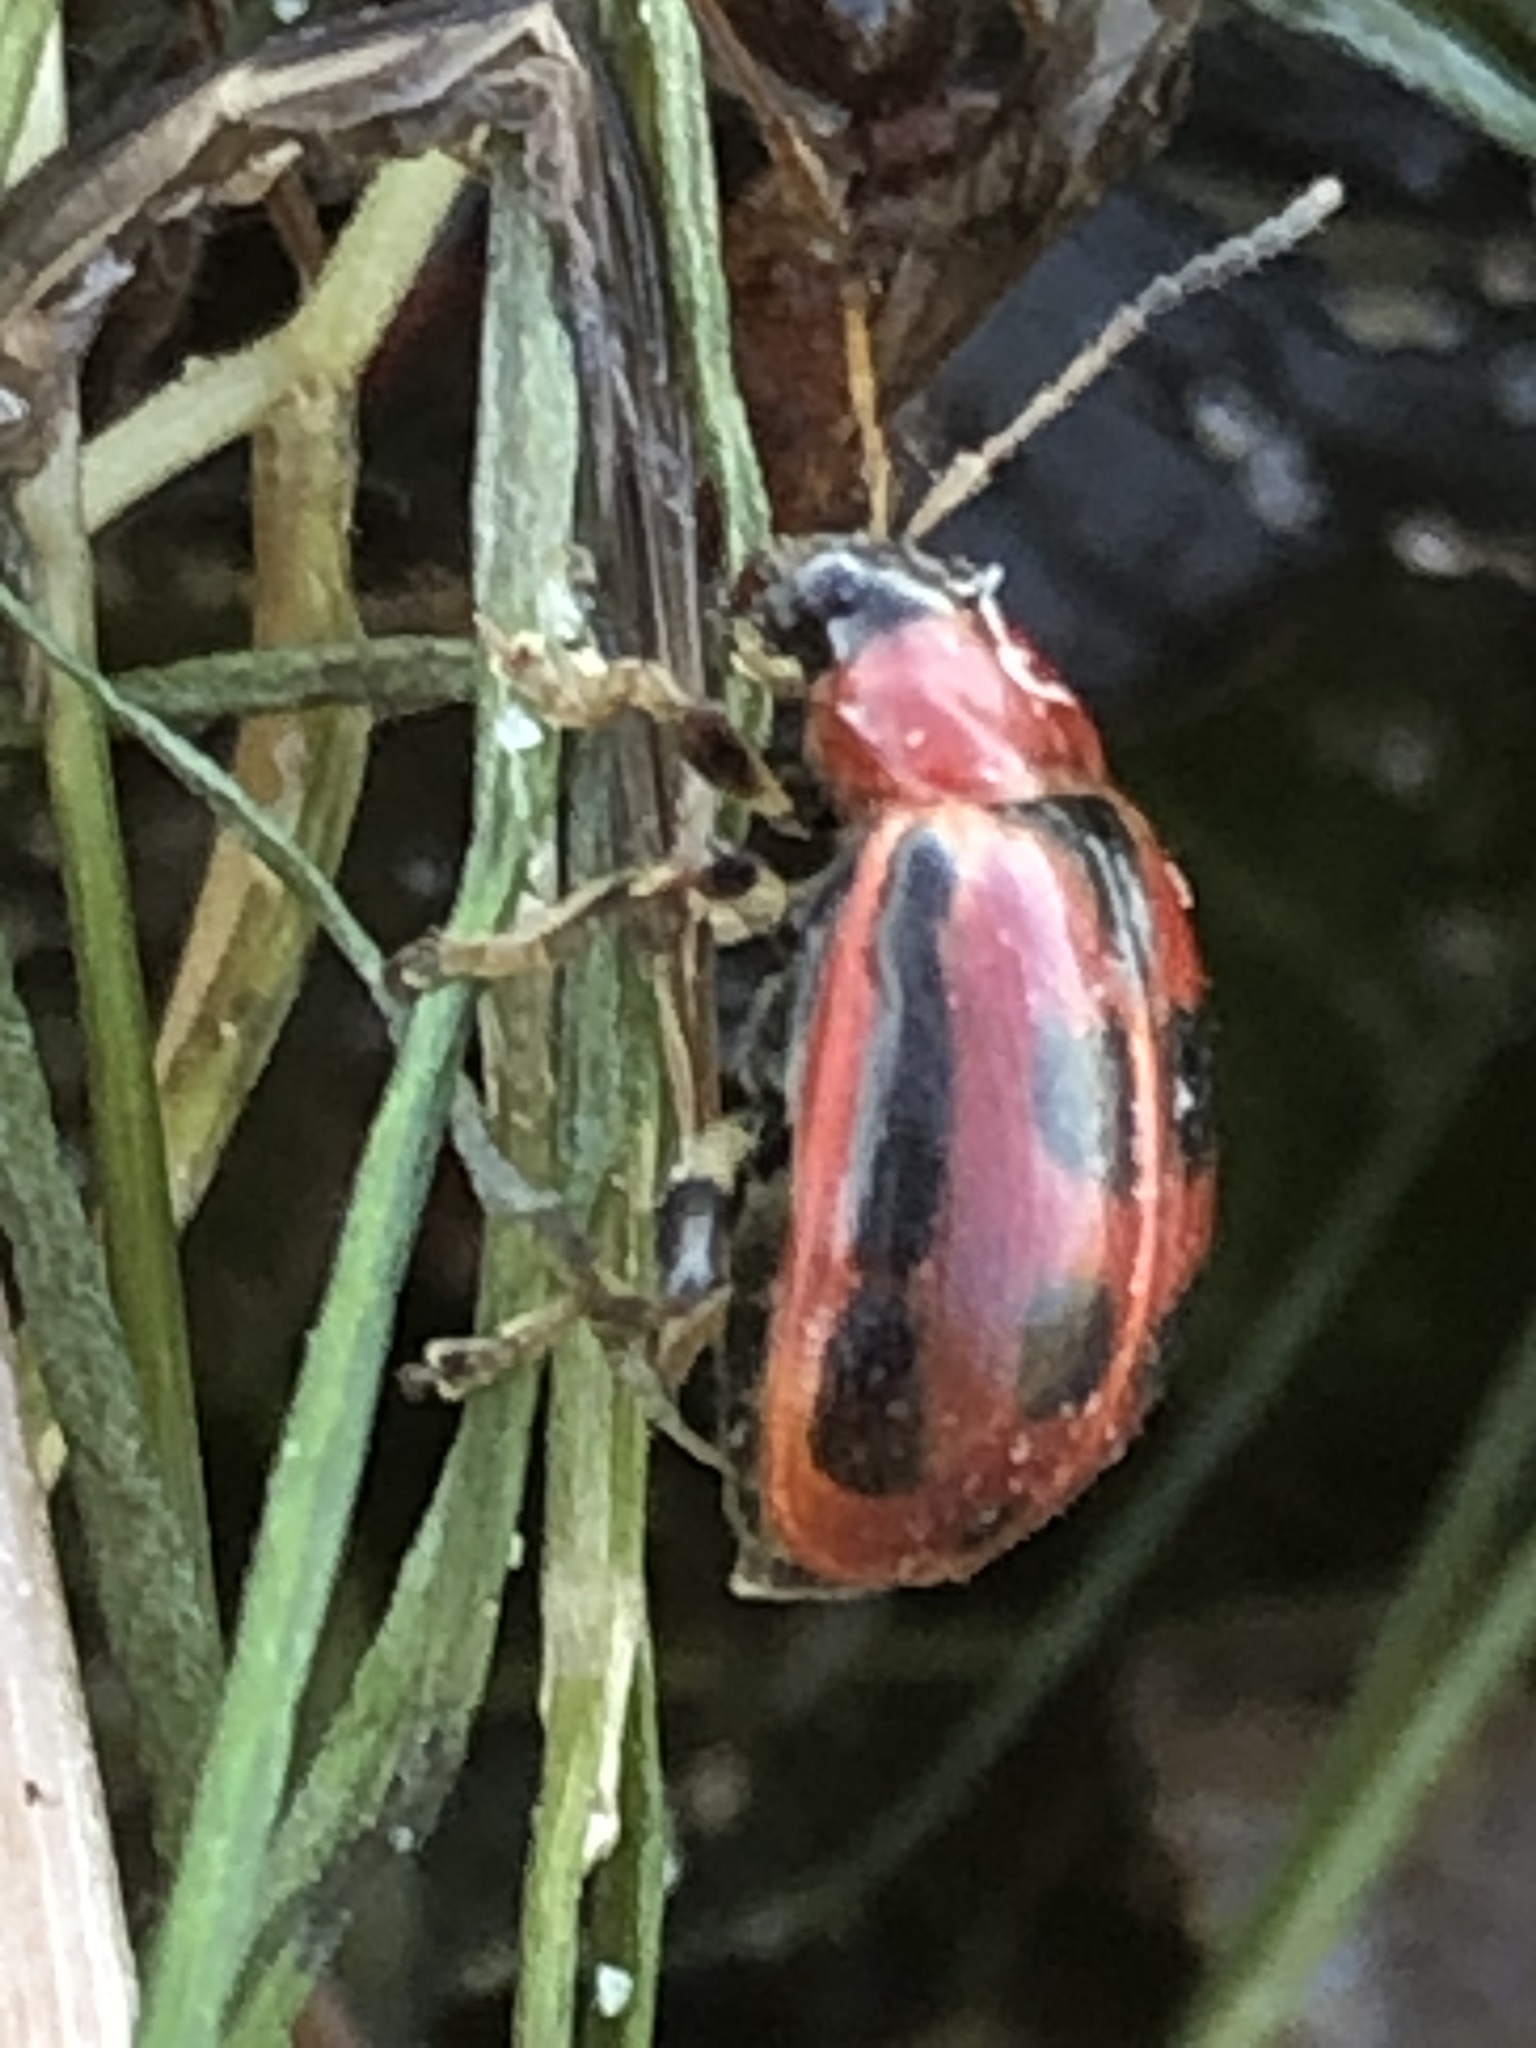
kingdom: Animalia
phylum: Arthropoda
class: Insecta
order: Coleoptera
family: Chrysomelidae
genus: Cerotoma
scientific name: Cerotoma trifurcata
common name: Bean leaf beetle
